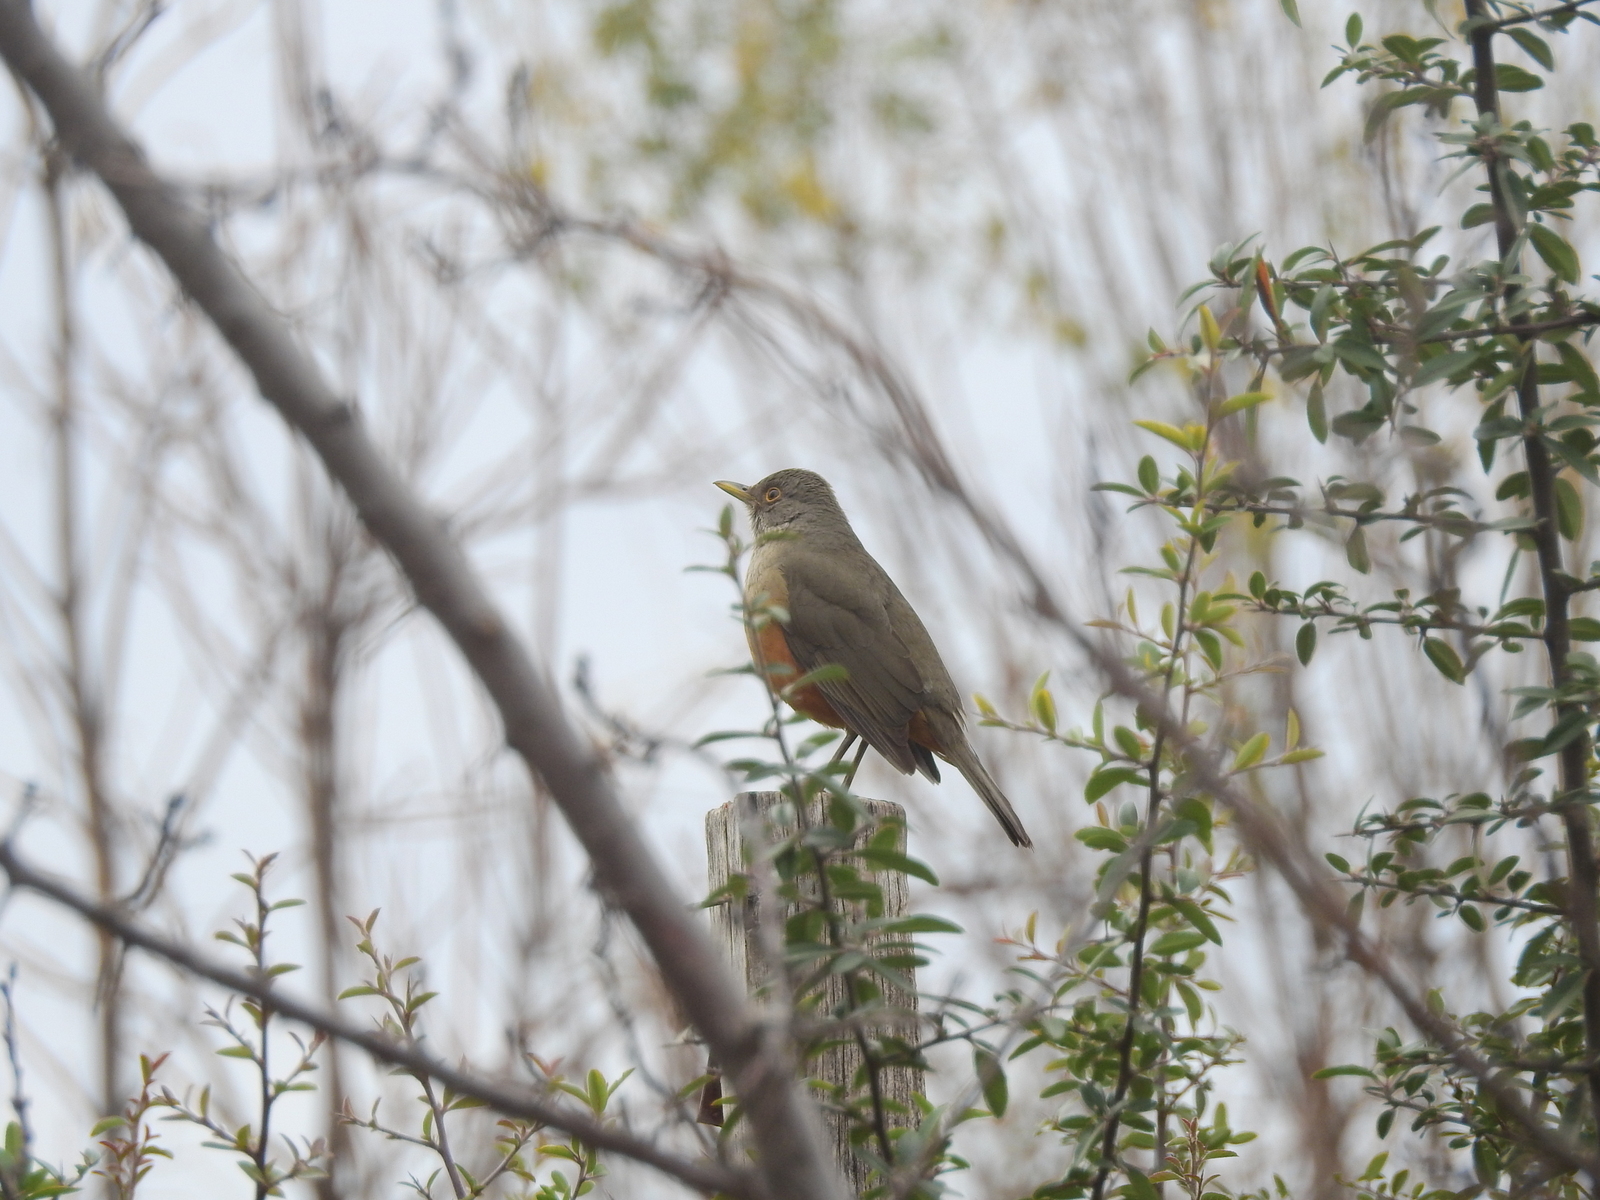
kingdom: Animalia
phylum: Chordata
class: Aves
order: Passeriformes
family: Turdidae
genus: Turdus
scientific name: Turdus rufiventris
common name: Rufous-bellied thrush
